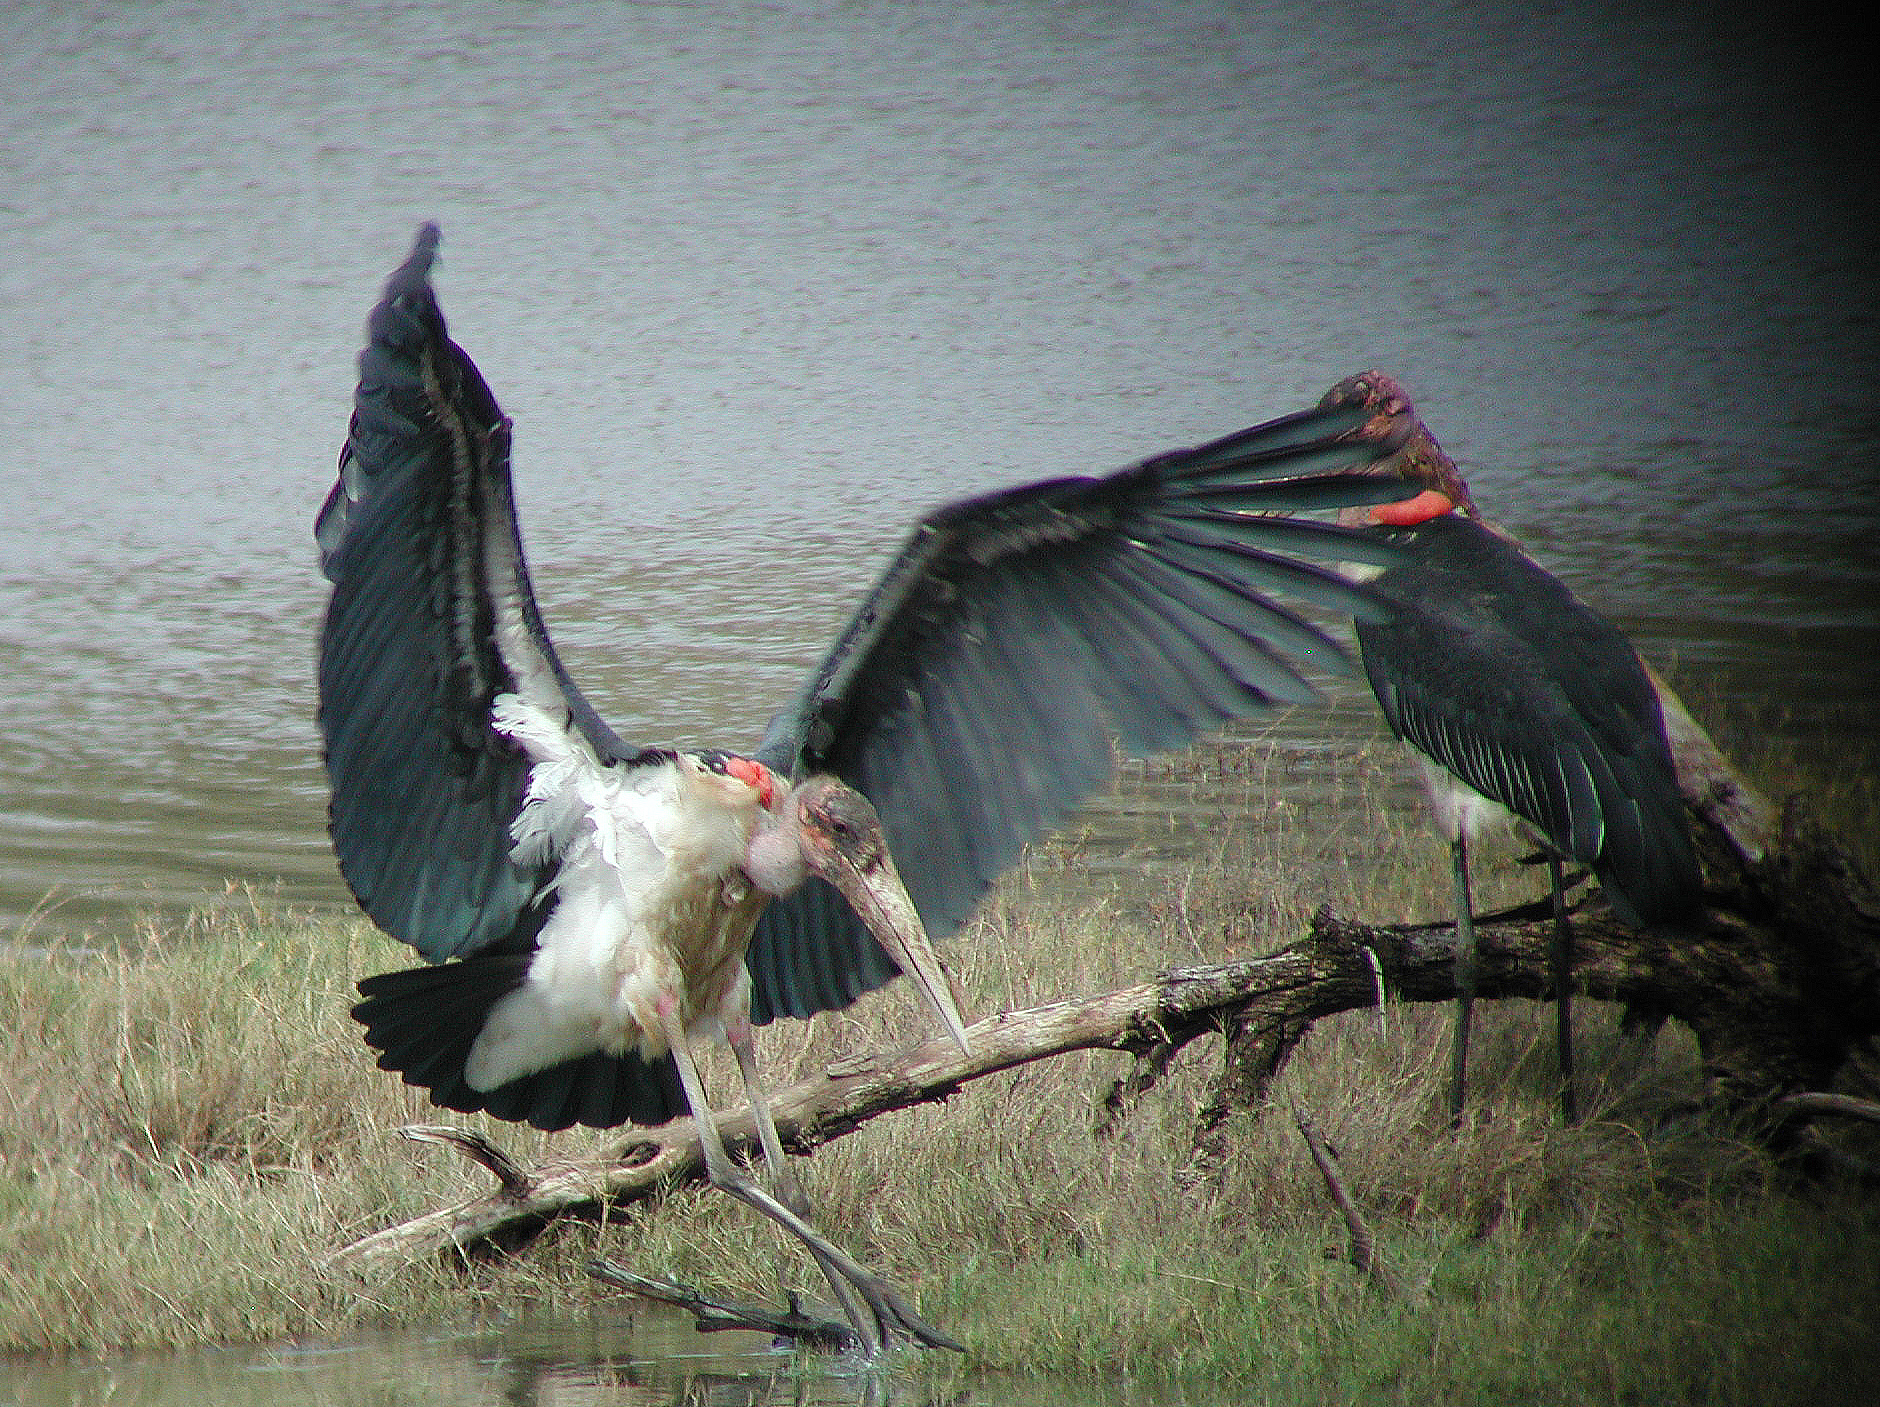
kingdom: Animalia
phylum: Chordata
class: Aves
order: Ciconiiformes
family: Ciconiidae
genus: Leptoptilos
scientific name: Leptoptilos crumenifer
